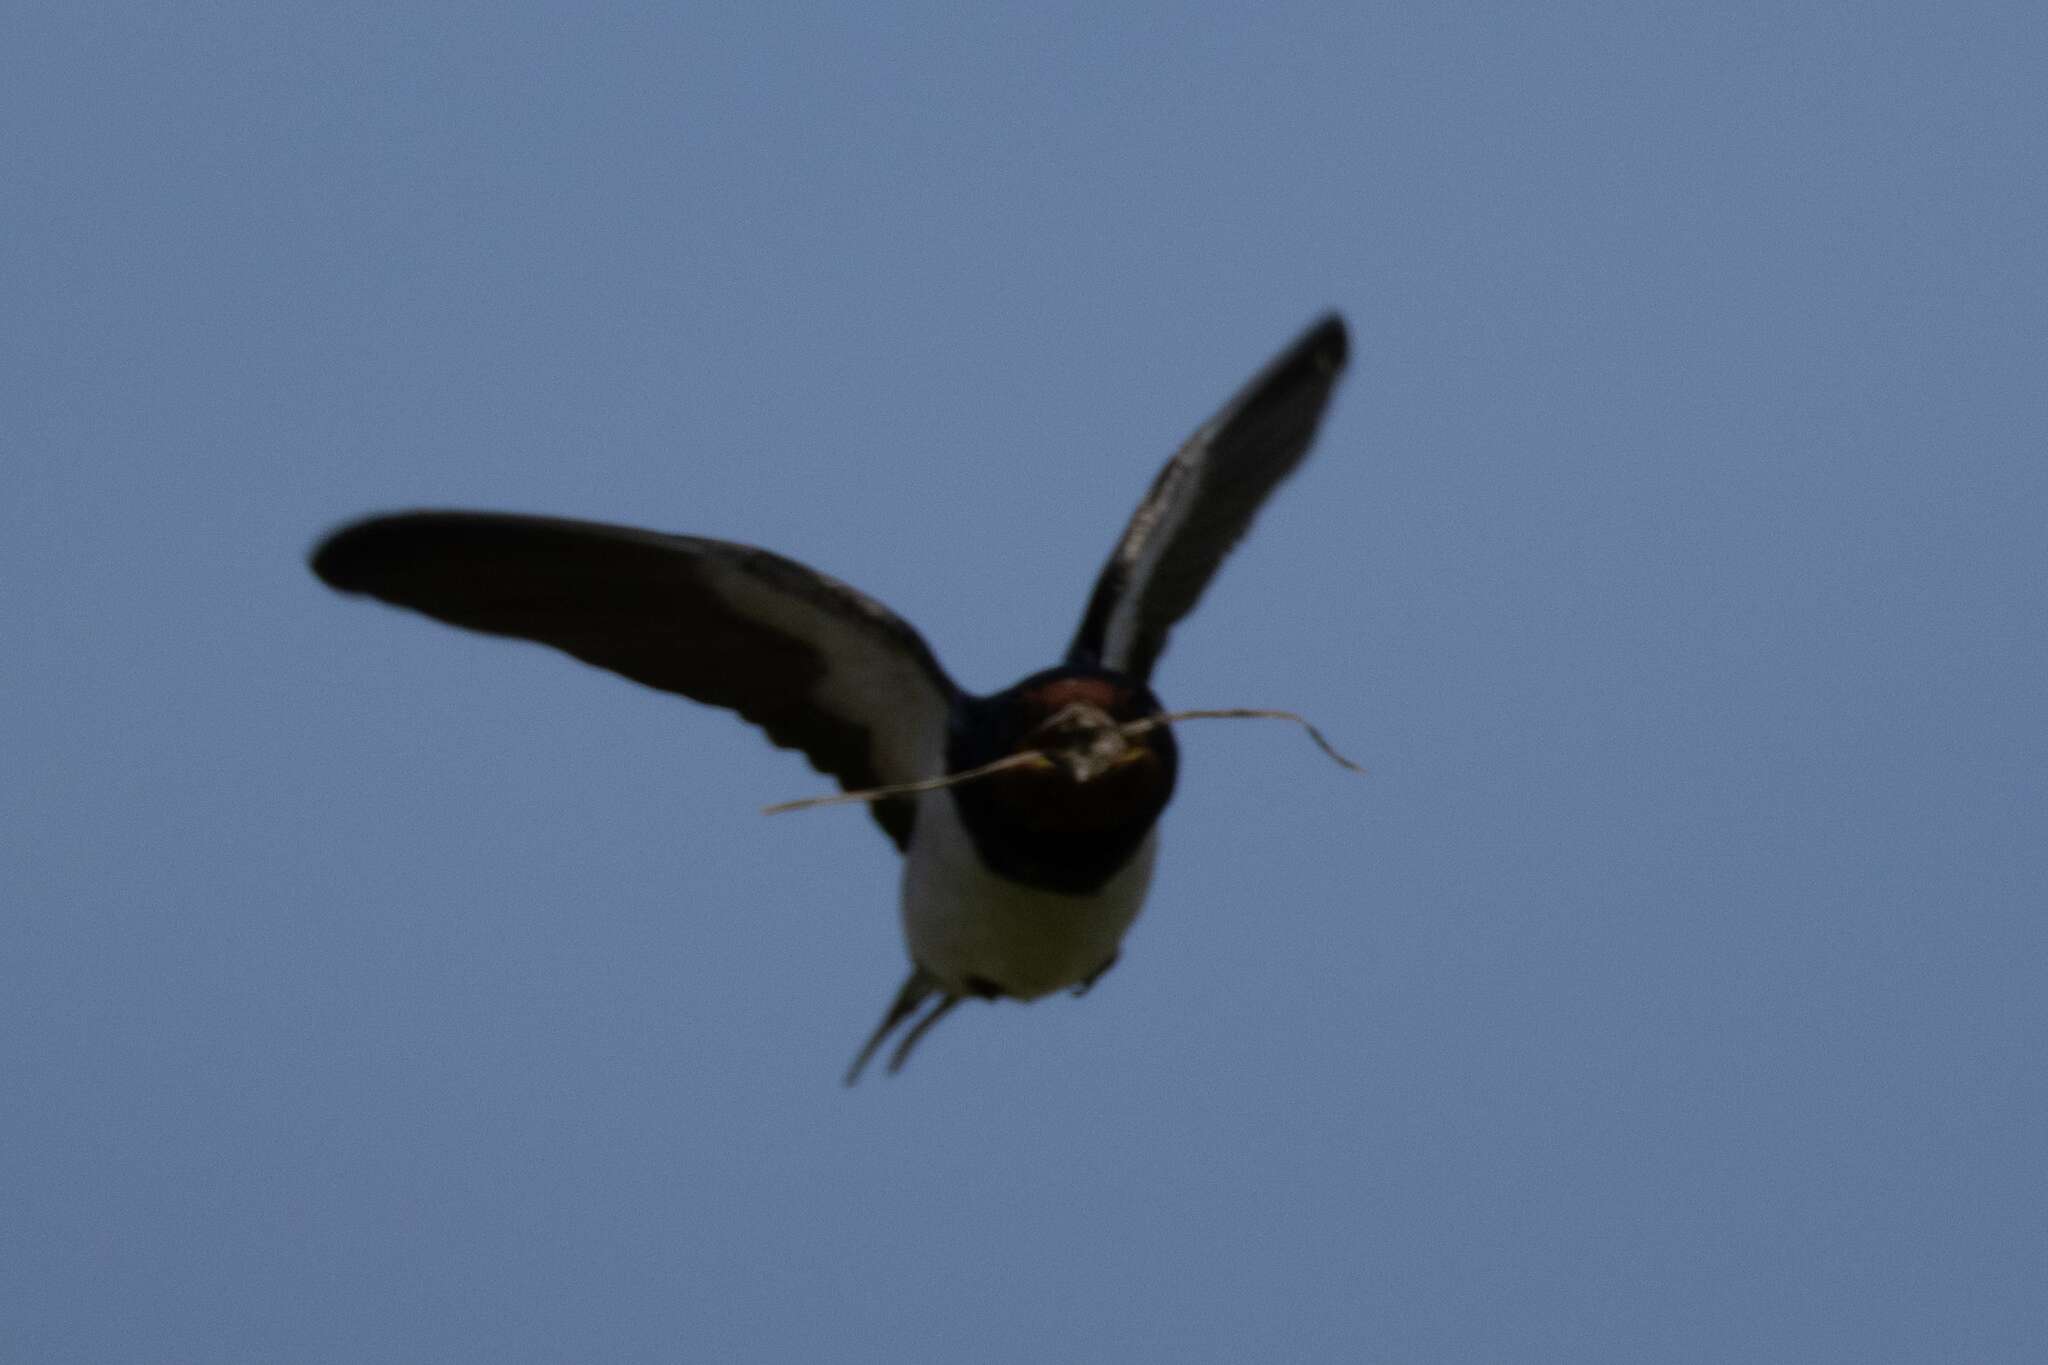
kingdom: Animalia
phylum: Chordata
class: Aves
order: Passeriformes
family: Hirundinidae
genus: Hirundo
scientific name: Hirundo rustica
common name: Barn swallow
